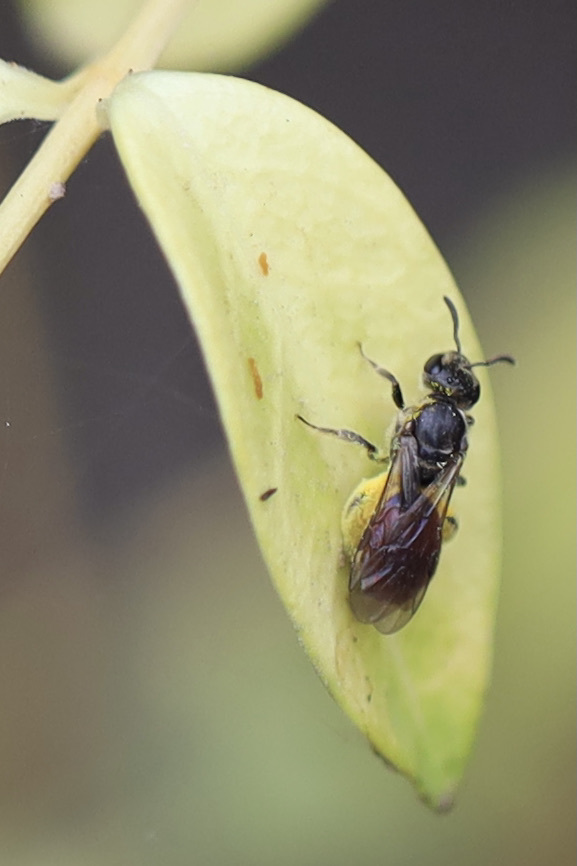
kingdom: Animalia
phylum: Arthropoda
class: Insecta
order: Hymenoptera
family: Halictidae
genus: Lasioglossum
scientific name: Lasioglossum ovaliceps
